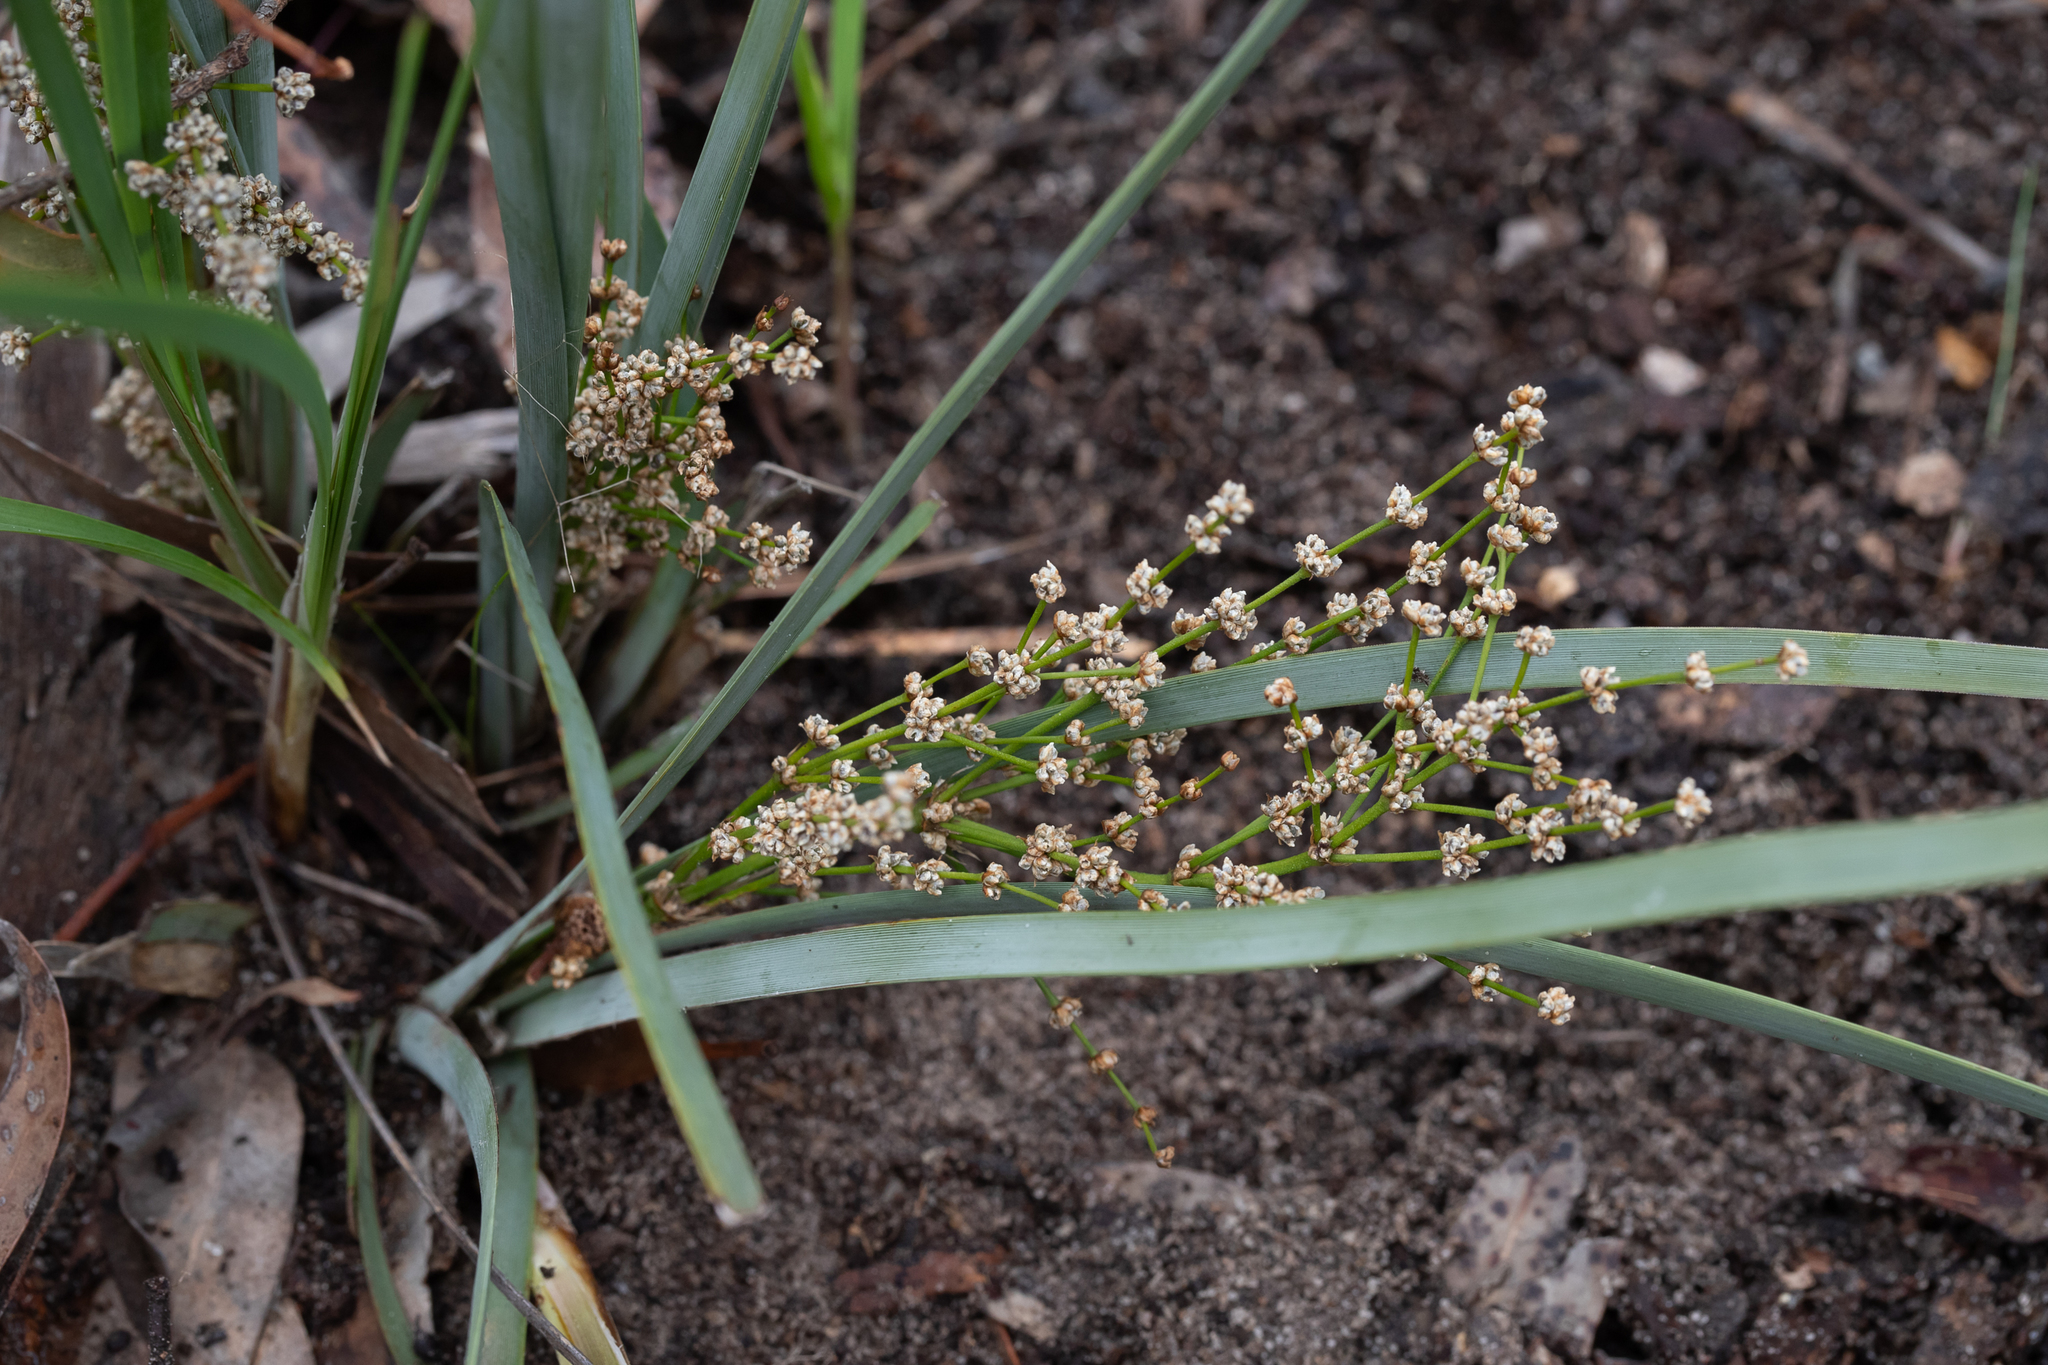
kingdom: Plantae
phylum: Tracheophyta
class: Liliopsida
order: Asparagales
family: Asparagaceae
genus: Lomandra
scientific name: Lomandra multiflora
